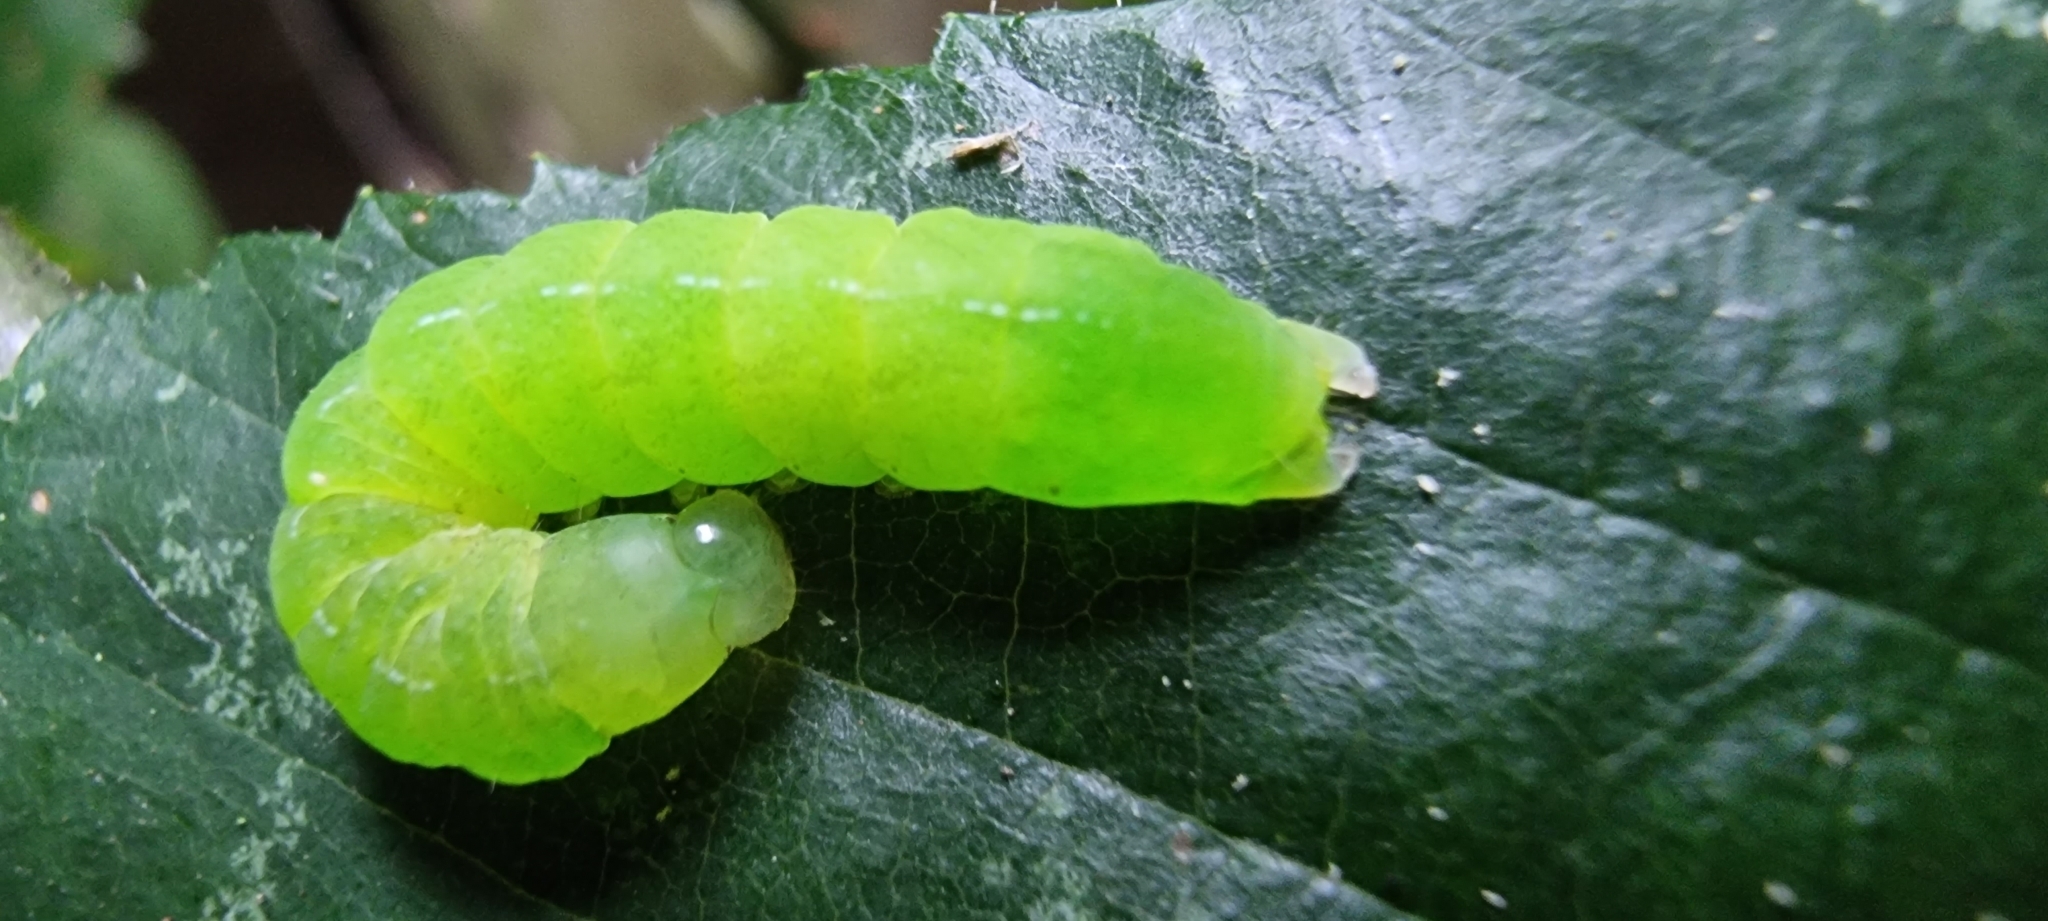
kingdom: Animalia
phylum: Arthropoda
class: Insecta
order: Lepidoptera
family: Noctuidae
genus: Phlogophora
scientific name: Phlogophora meticulosa
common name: Angle shades
